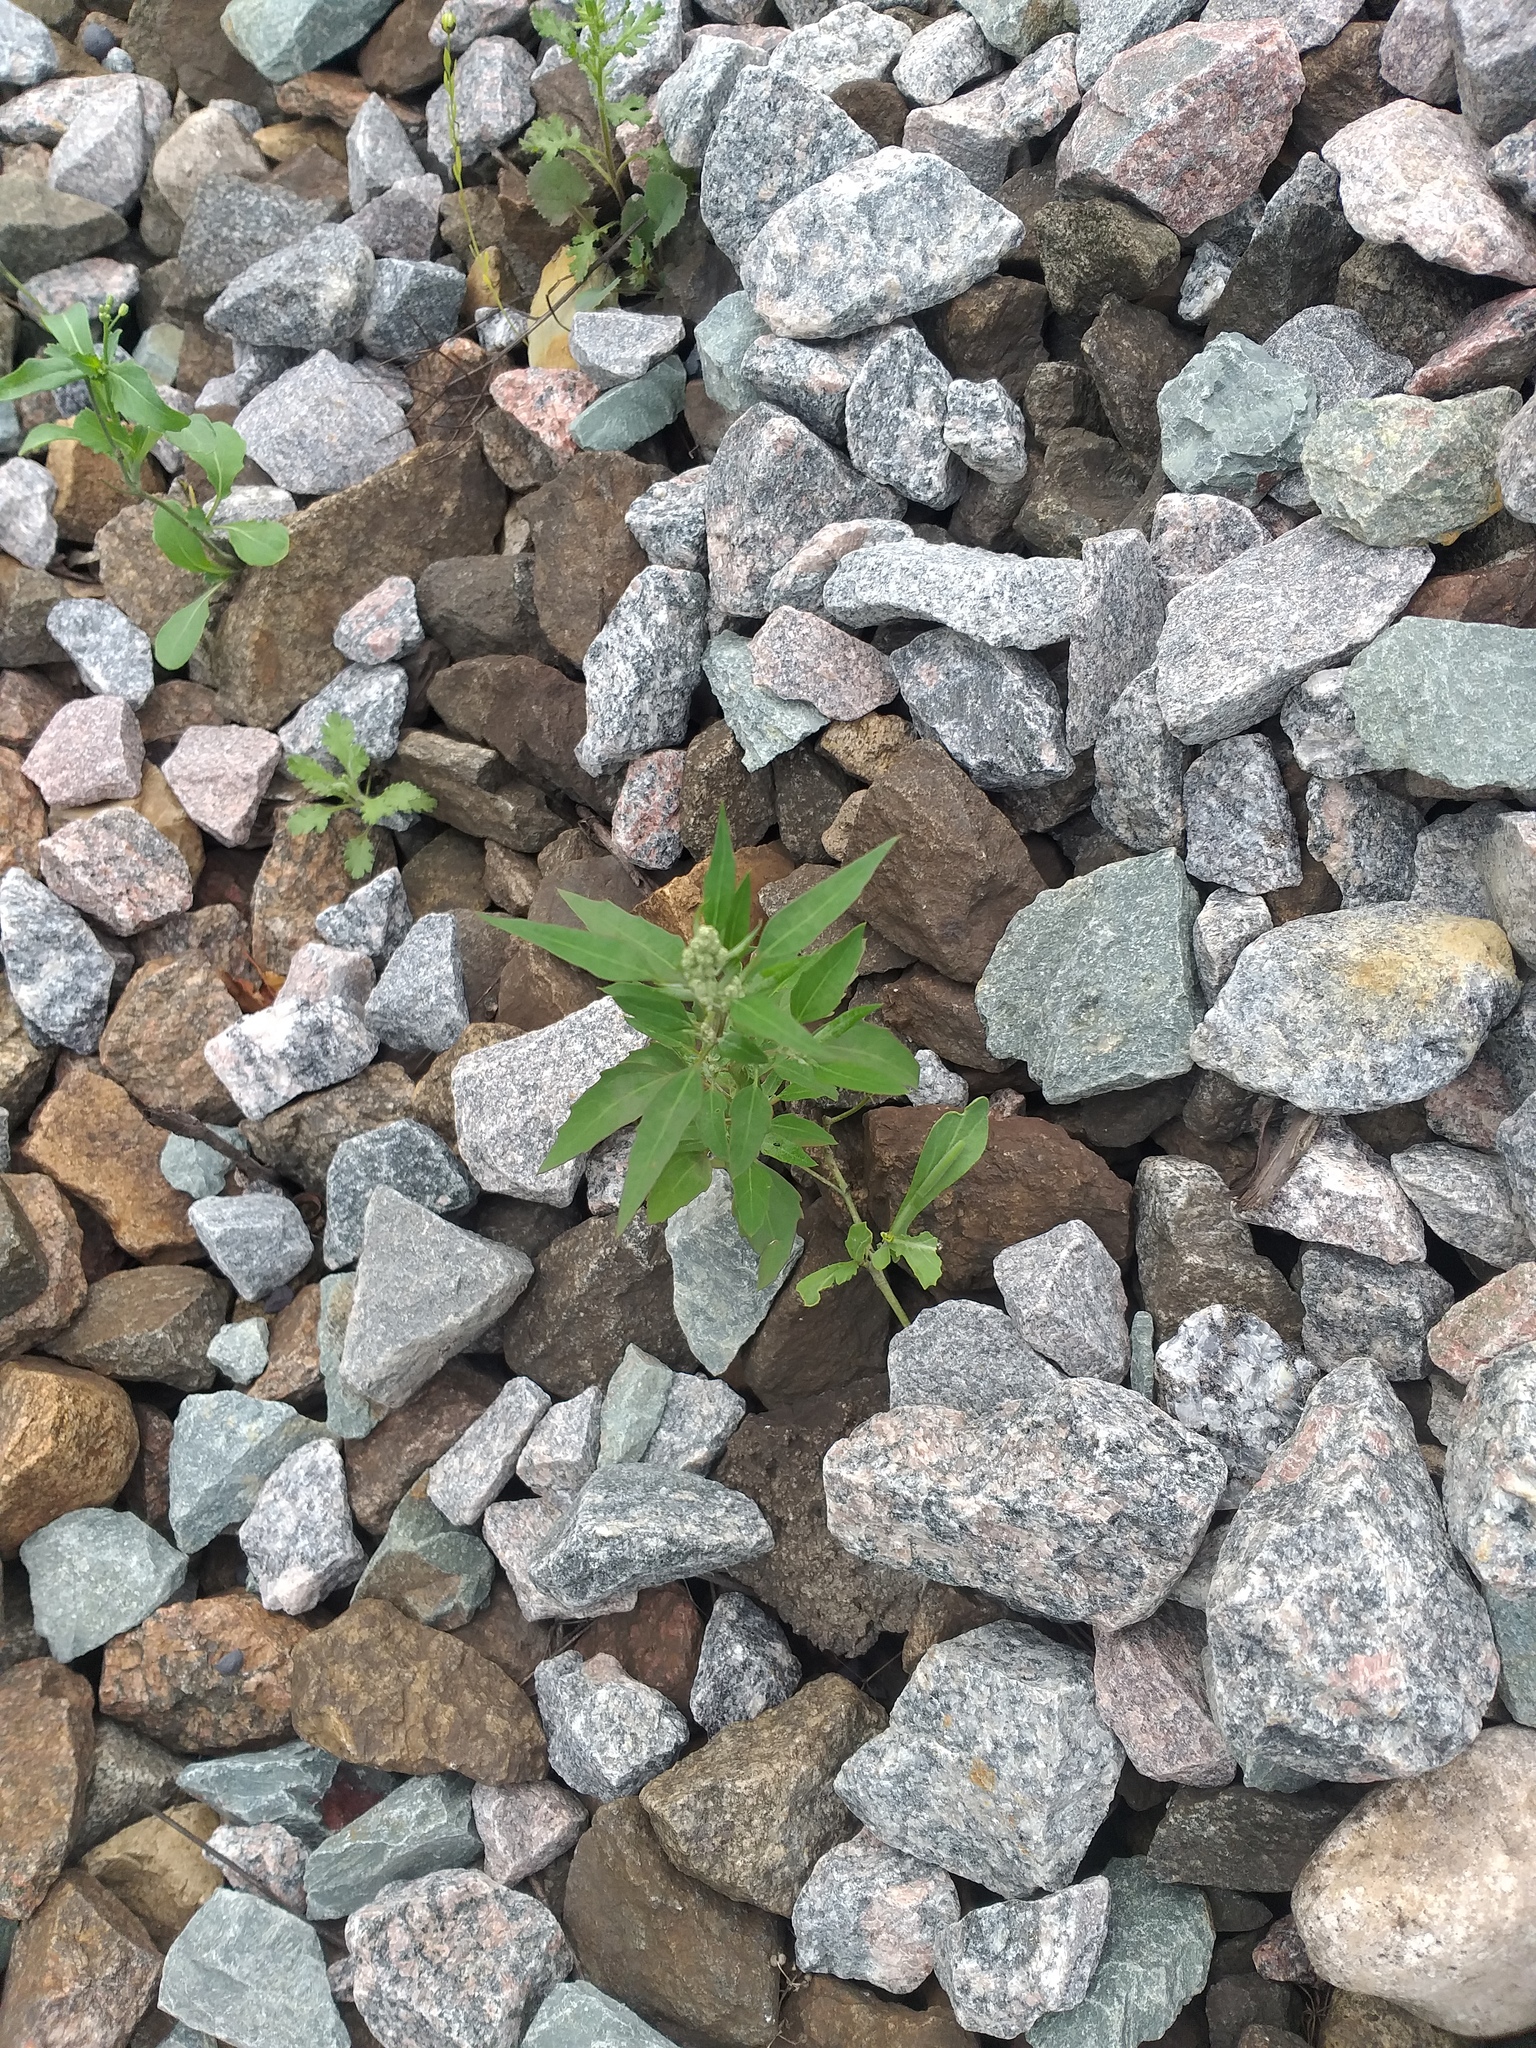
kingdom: Plantae
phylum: Tracheophyta
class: Magnoliopsida
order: Caryophyllales
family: Amaranthaceae
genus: Chenopodium
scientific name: Chenopodium album
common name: Fat-hen
